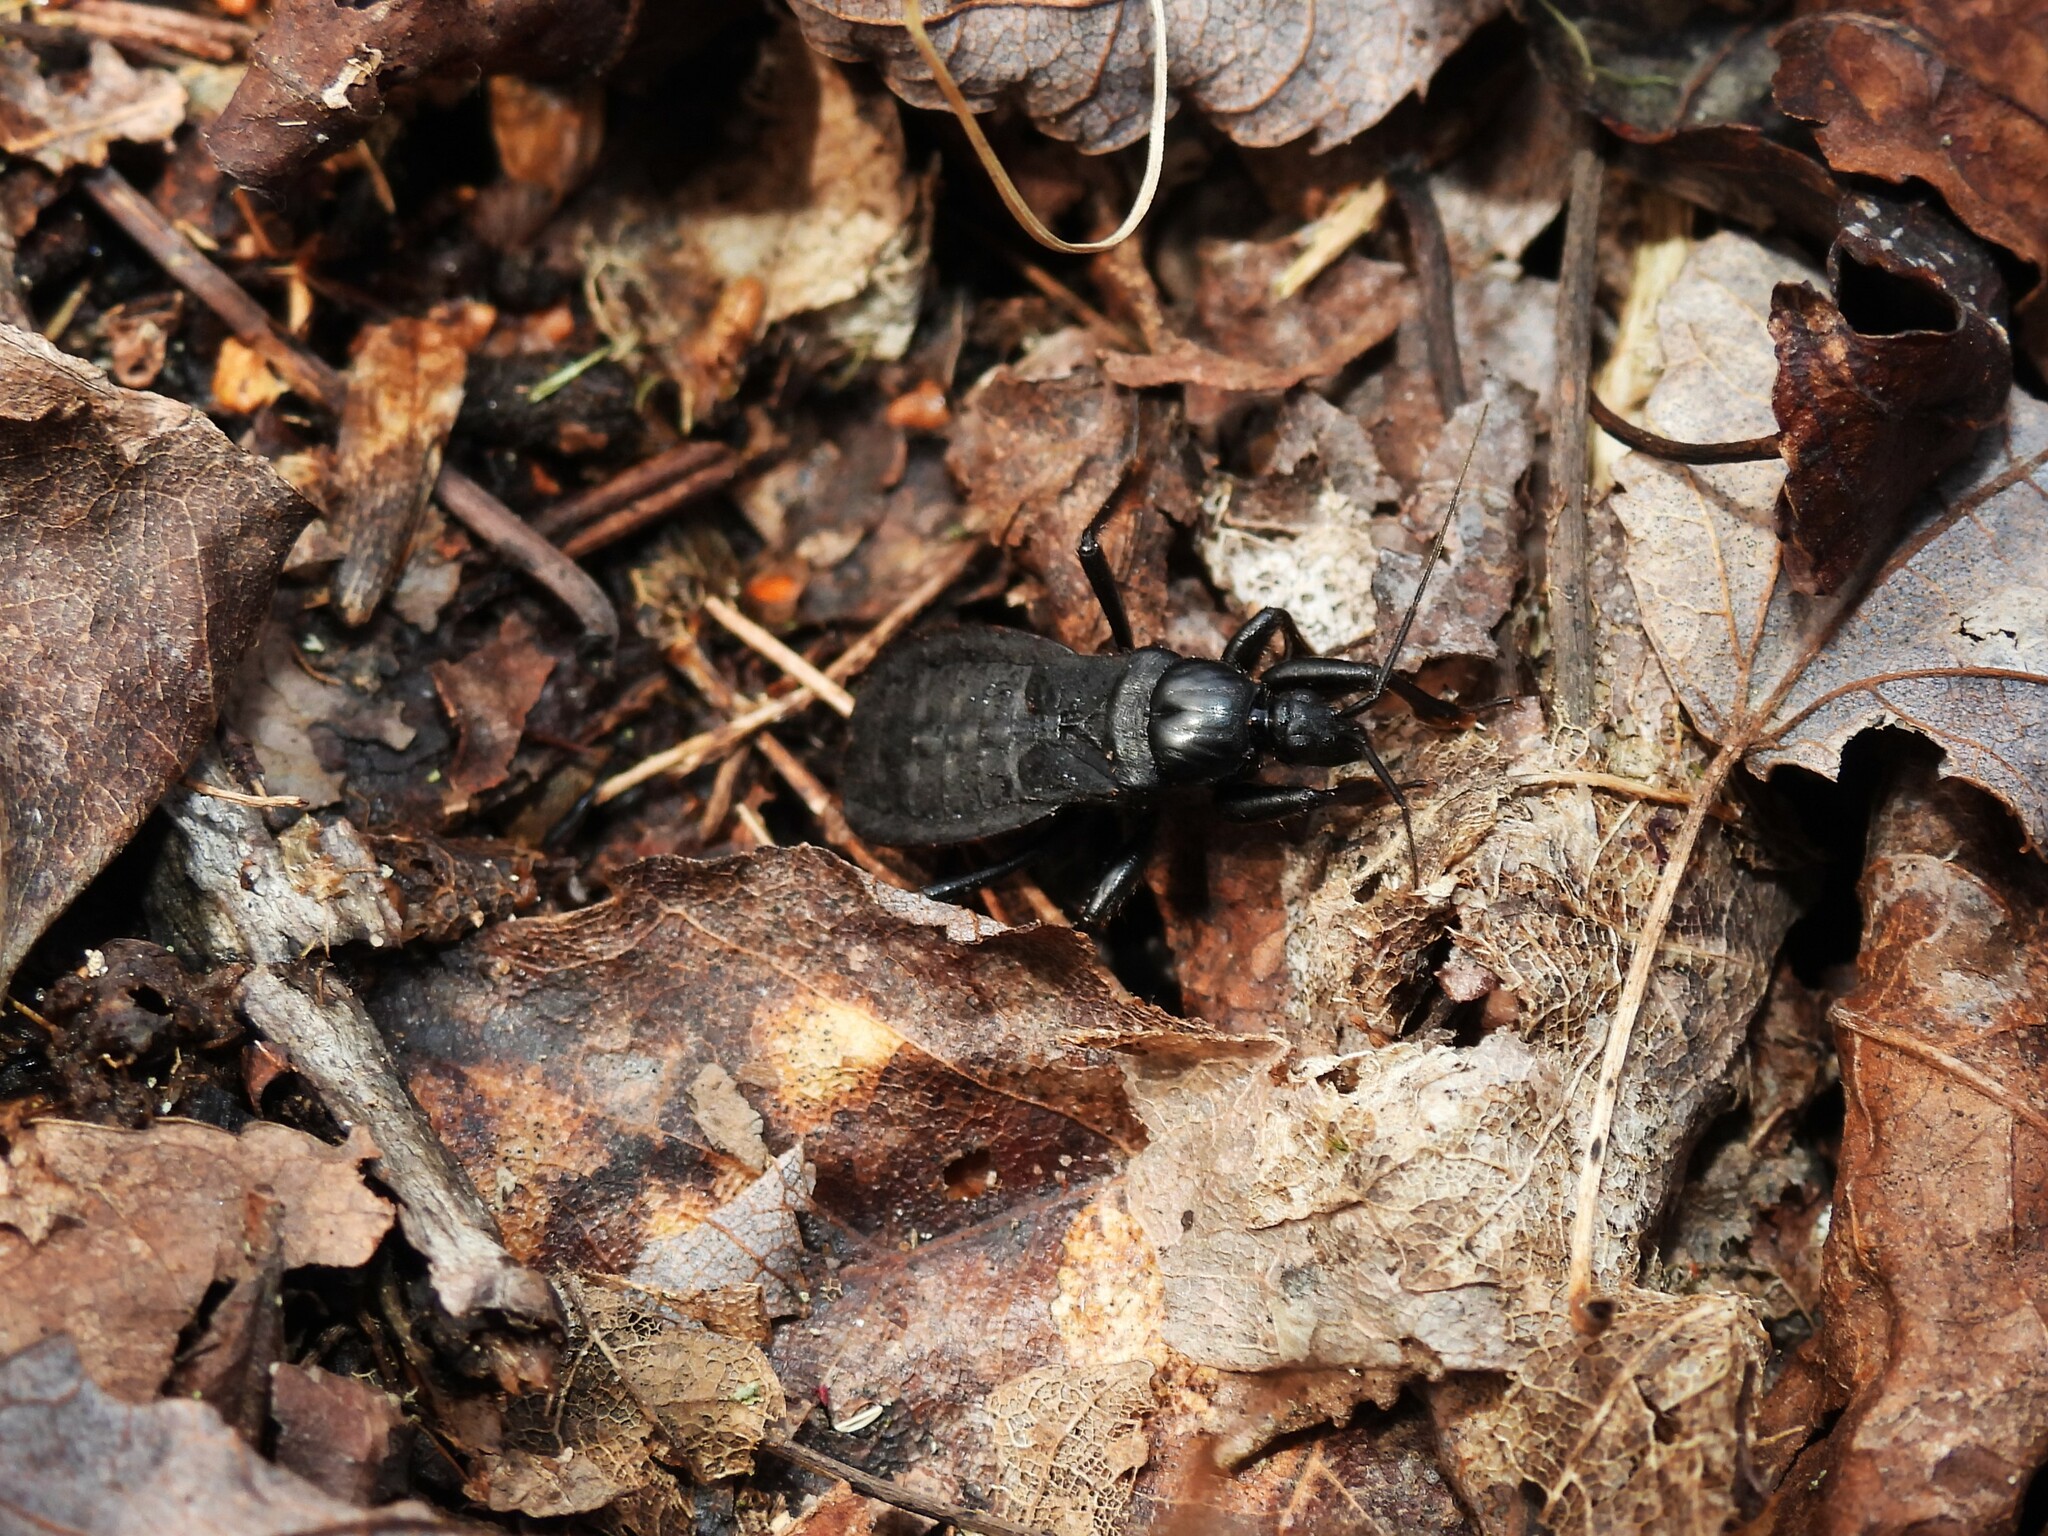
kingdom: Animalia
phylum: Arthropoda
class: Insecta
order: Hemiptera
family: Reduviidae
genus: Melanolestes
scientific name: Melanolestes picipes
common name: Assassin bug
